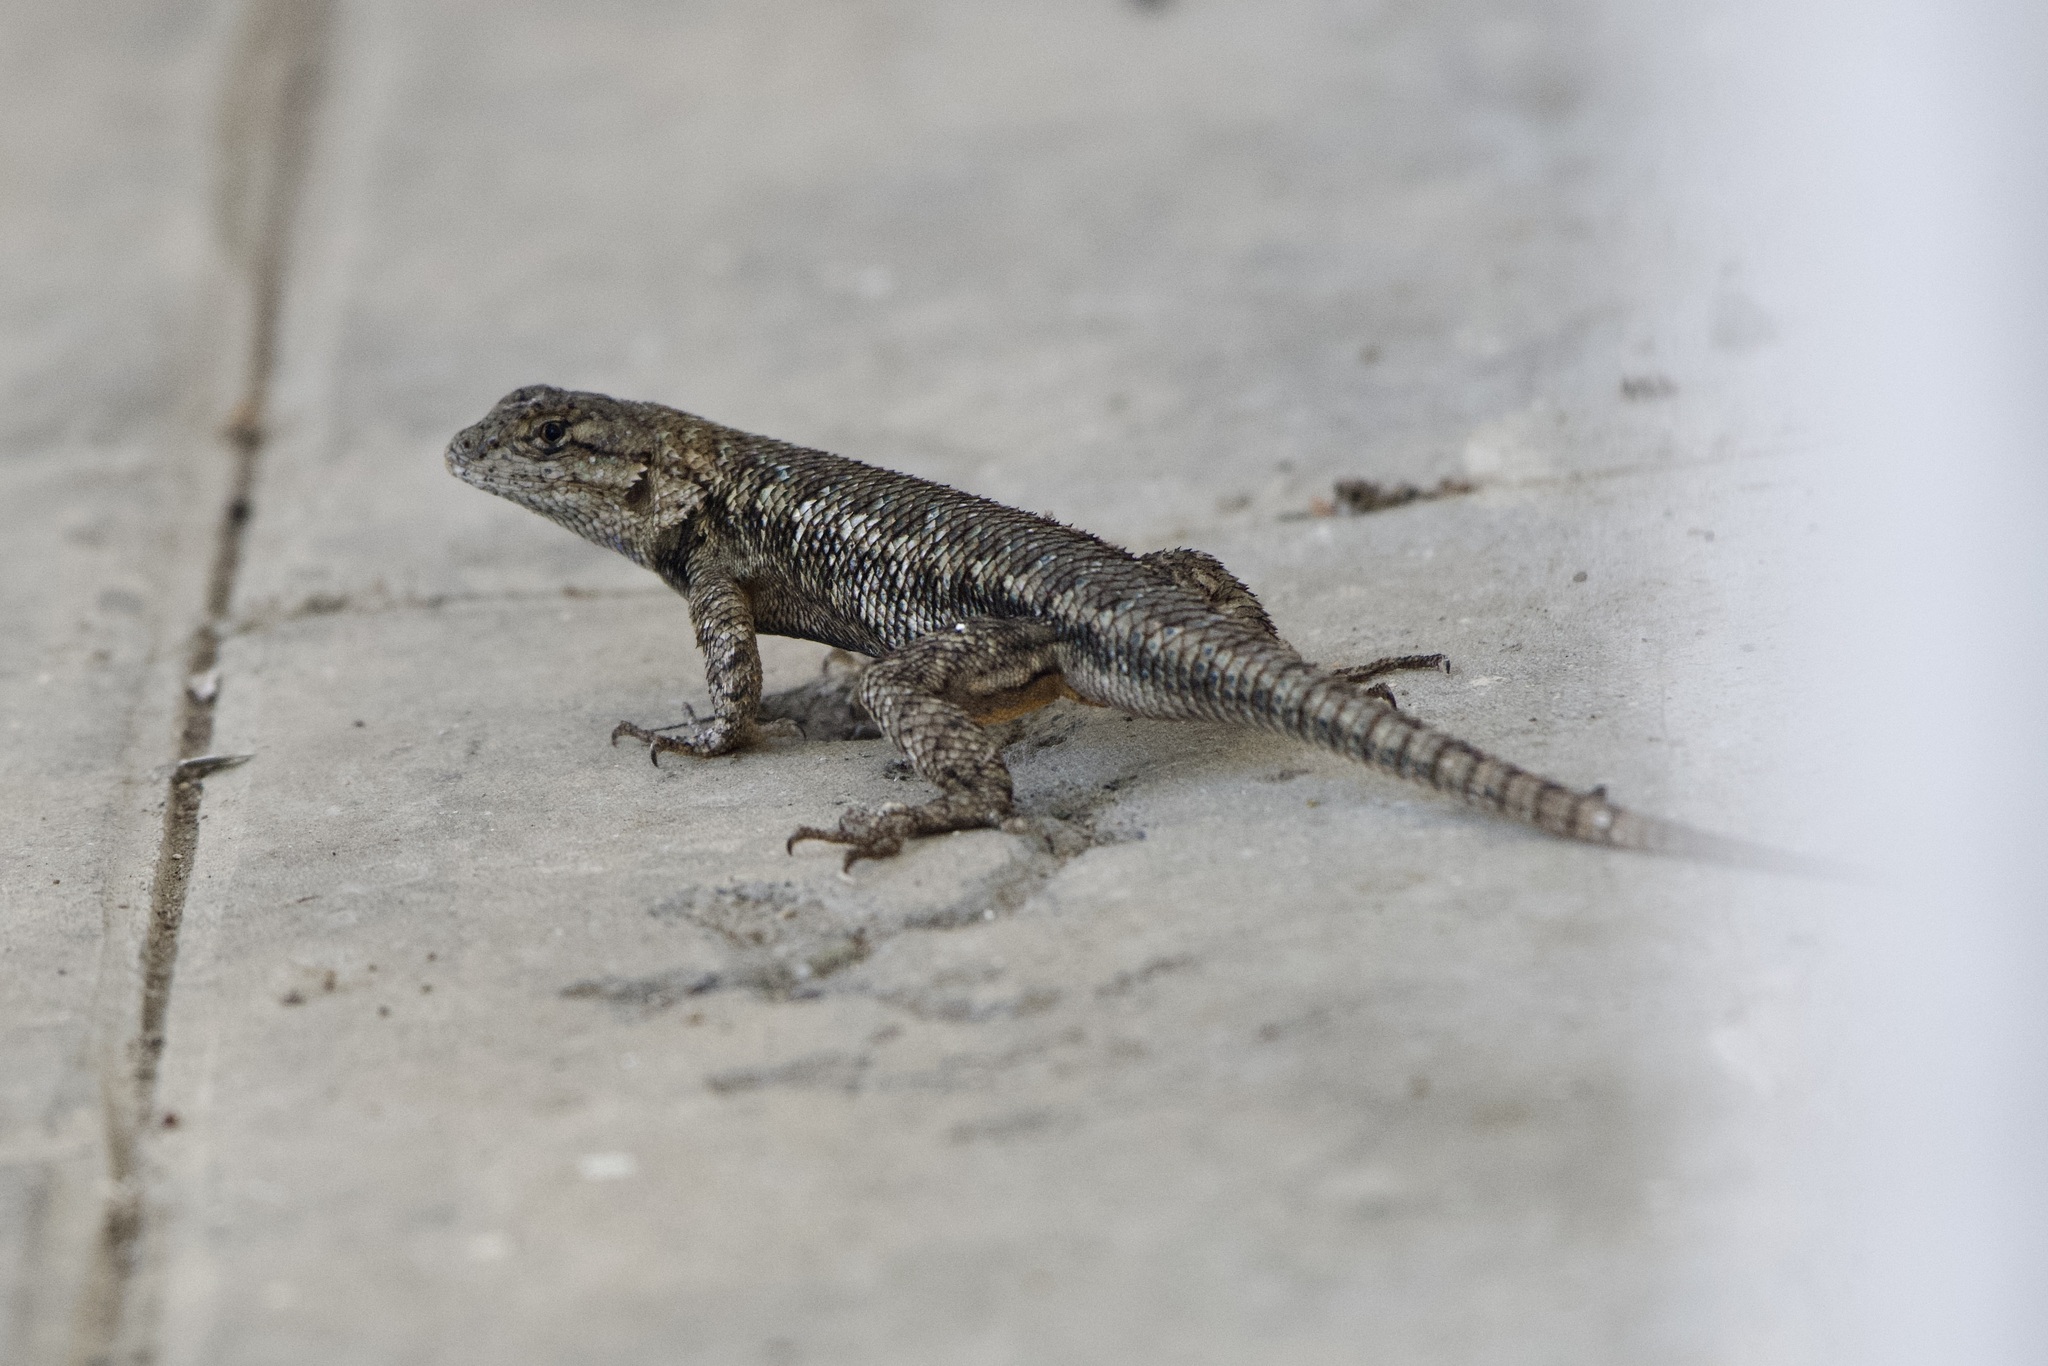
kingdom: Animalia
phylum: Chordata
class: Squamata
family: Phrynosomatidae
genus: Sceloporus
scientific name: Sceloporus occidentalis
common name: Western fence lizard
